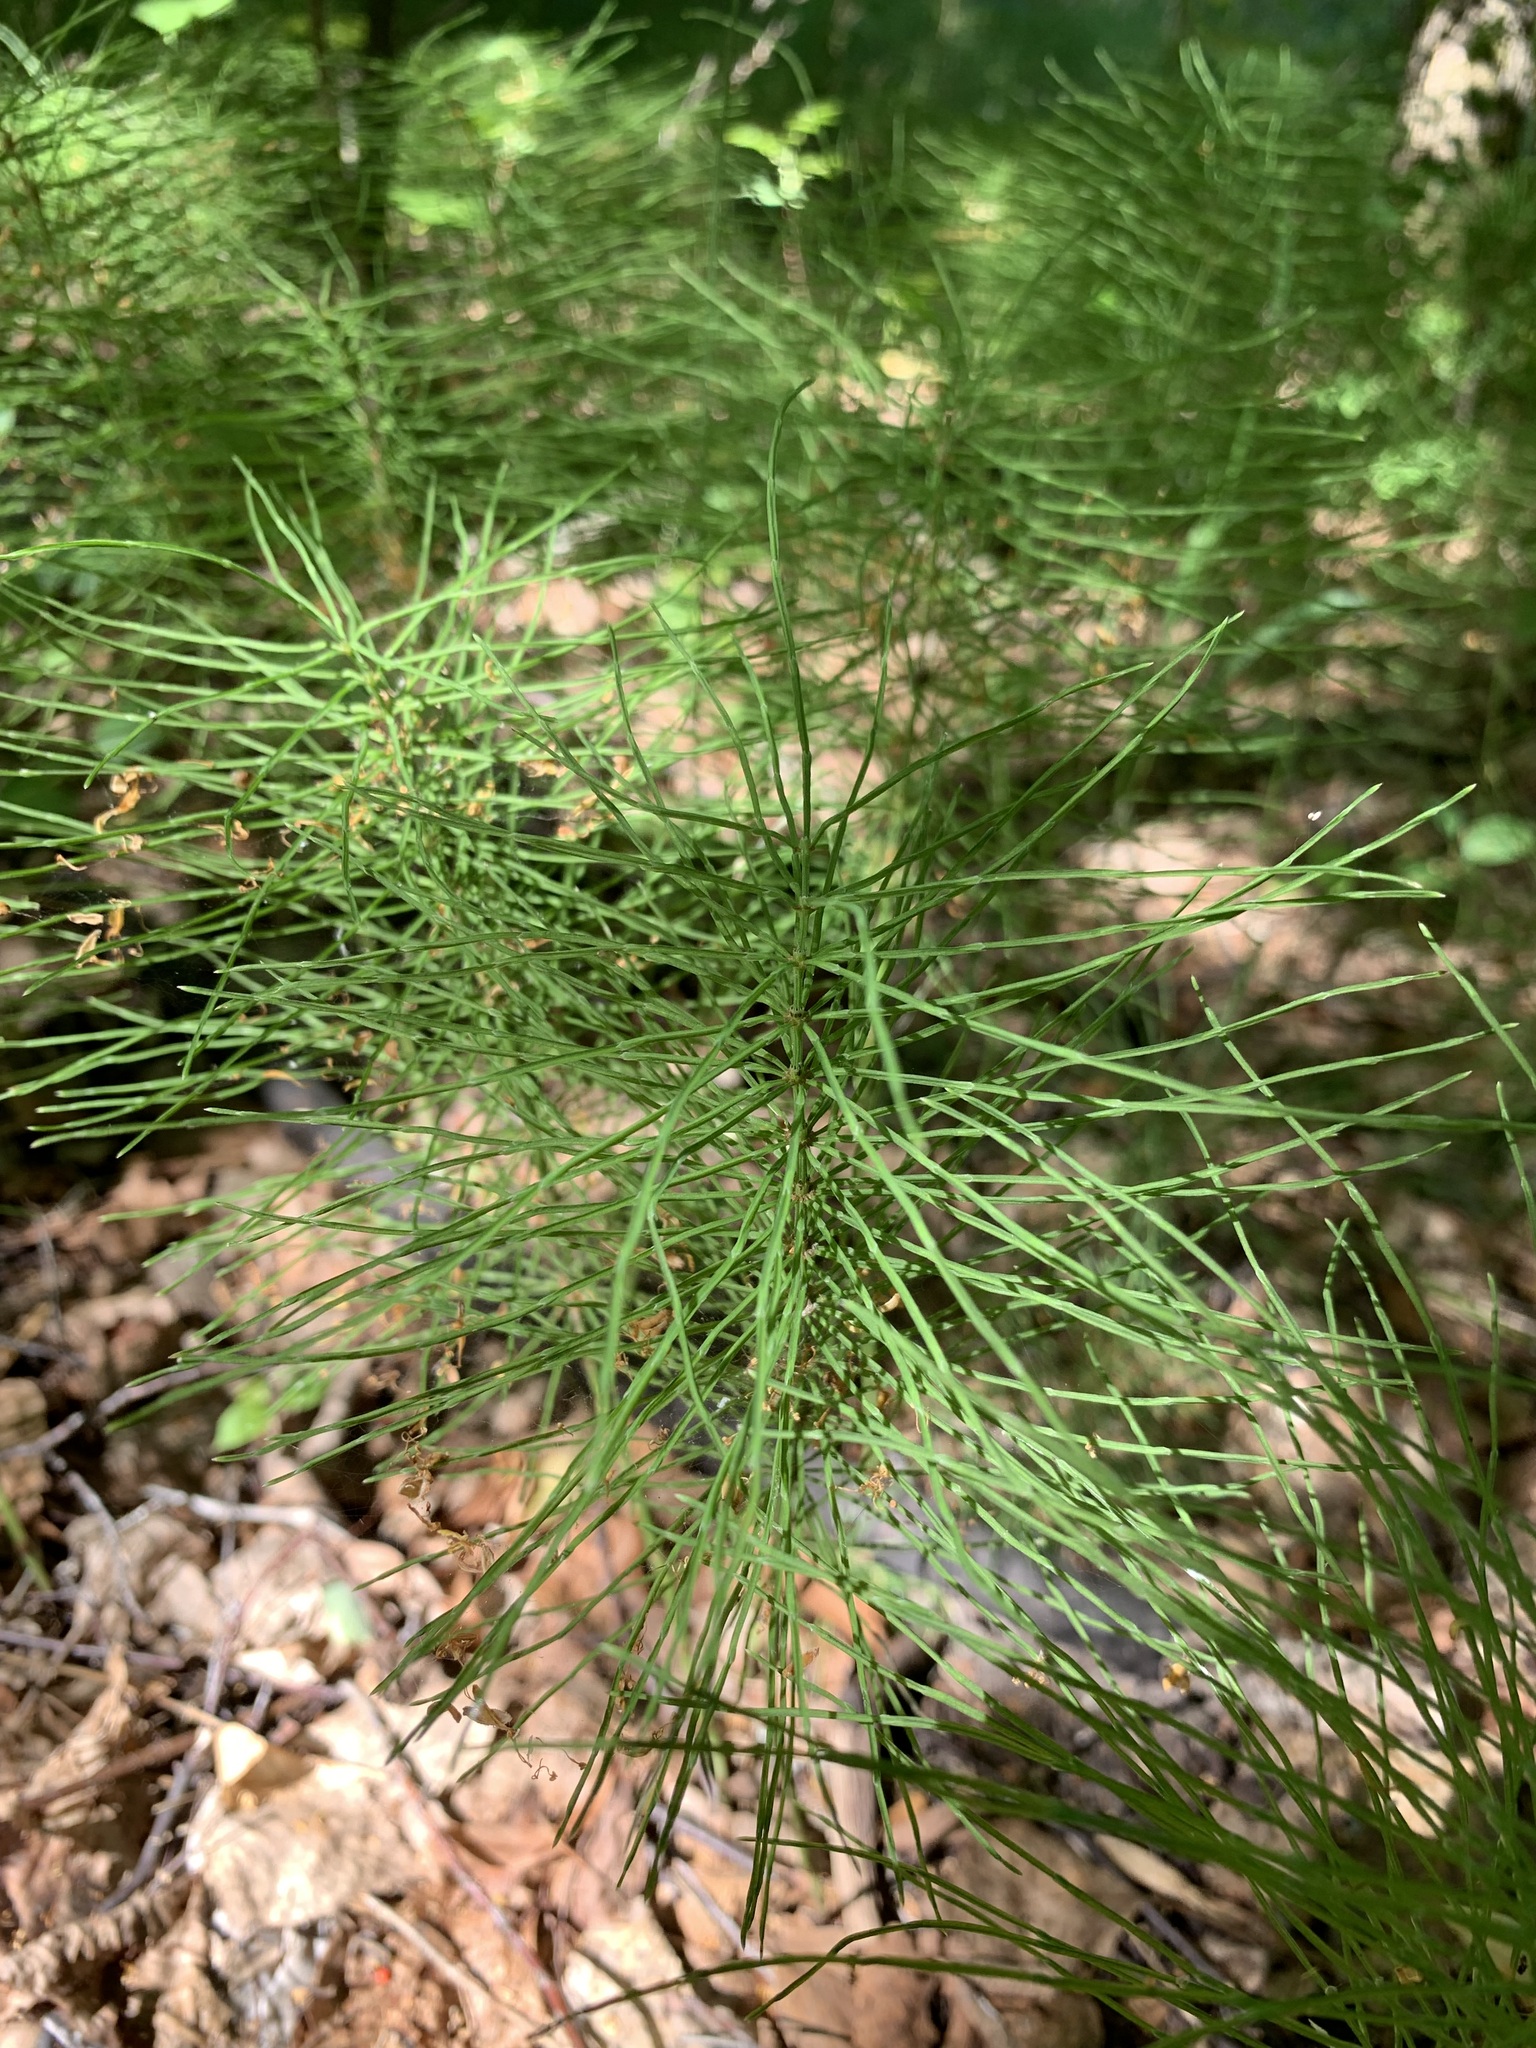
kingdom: Plantae
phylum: Tracheophyta
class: Polypodiopsida
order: Equisetales
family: Equisetaceae
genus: Equisetum
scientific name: Equisetum pratense
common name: Meadow horsetail
